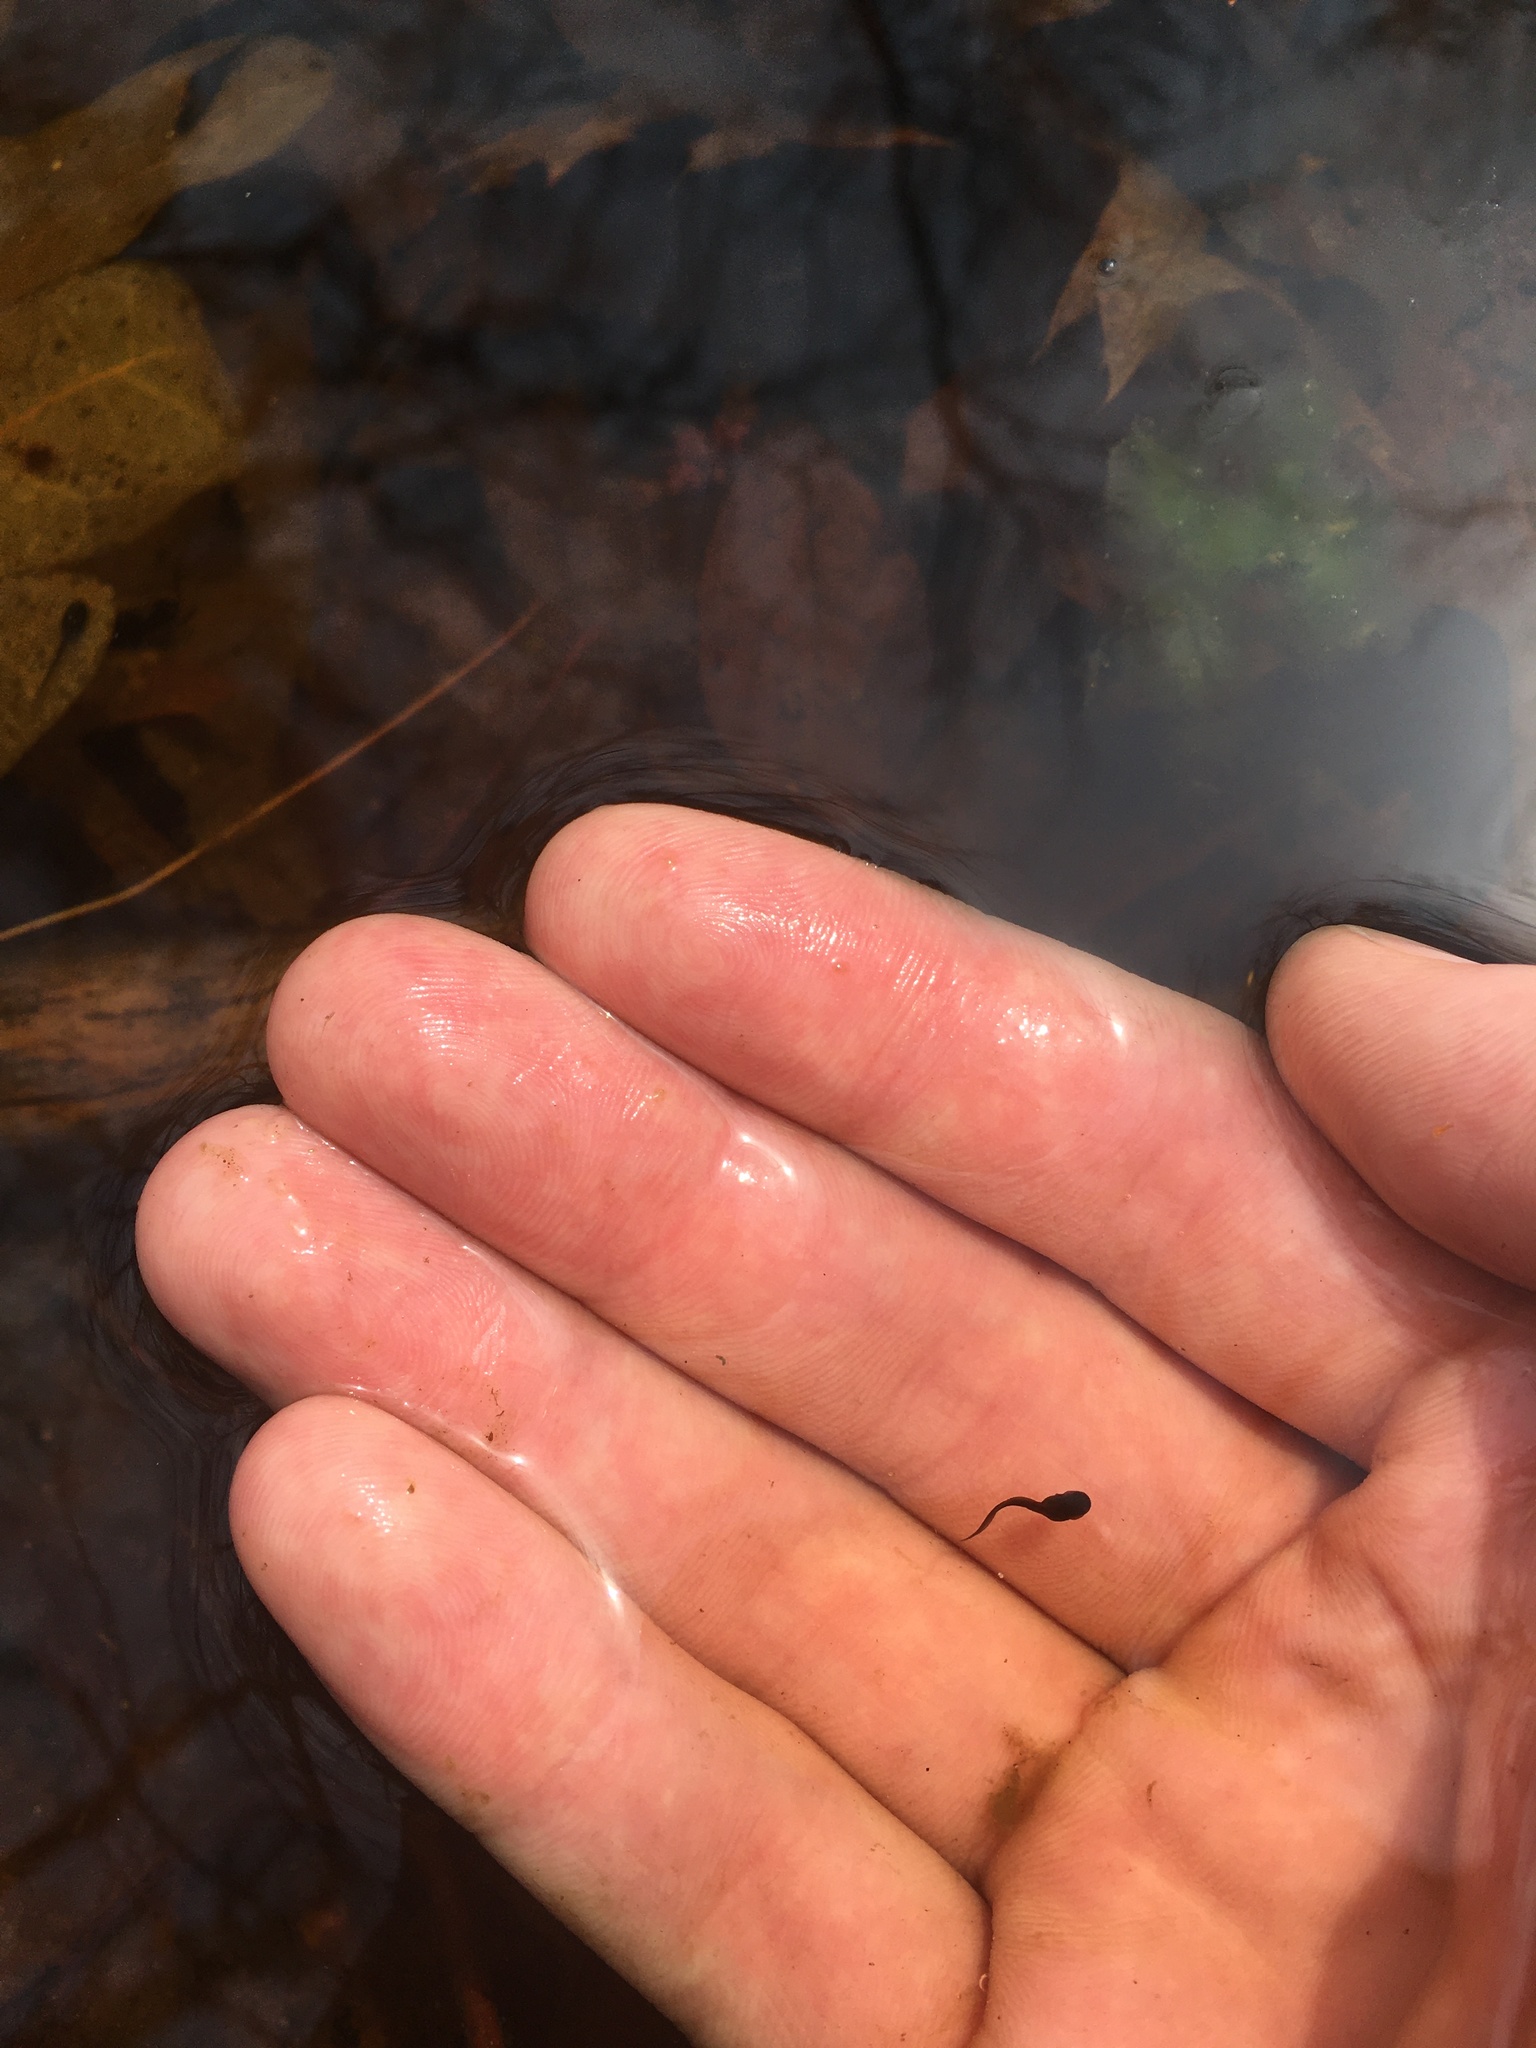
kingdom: Animalia
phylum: Chordata
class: Amphibia
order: Anura
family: Ranidae
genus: Lithobates
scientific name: Lithobates sylvaticus
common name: Wood frog
